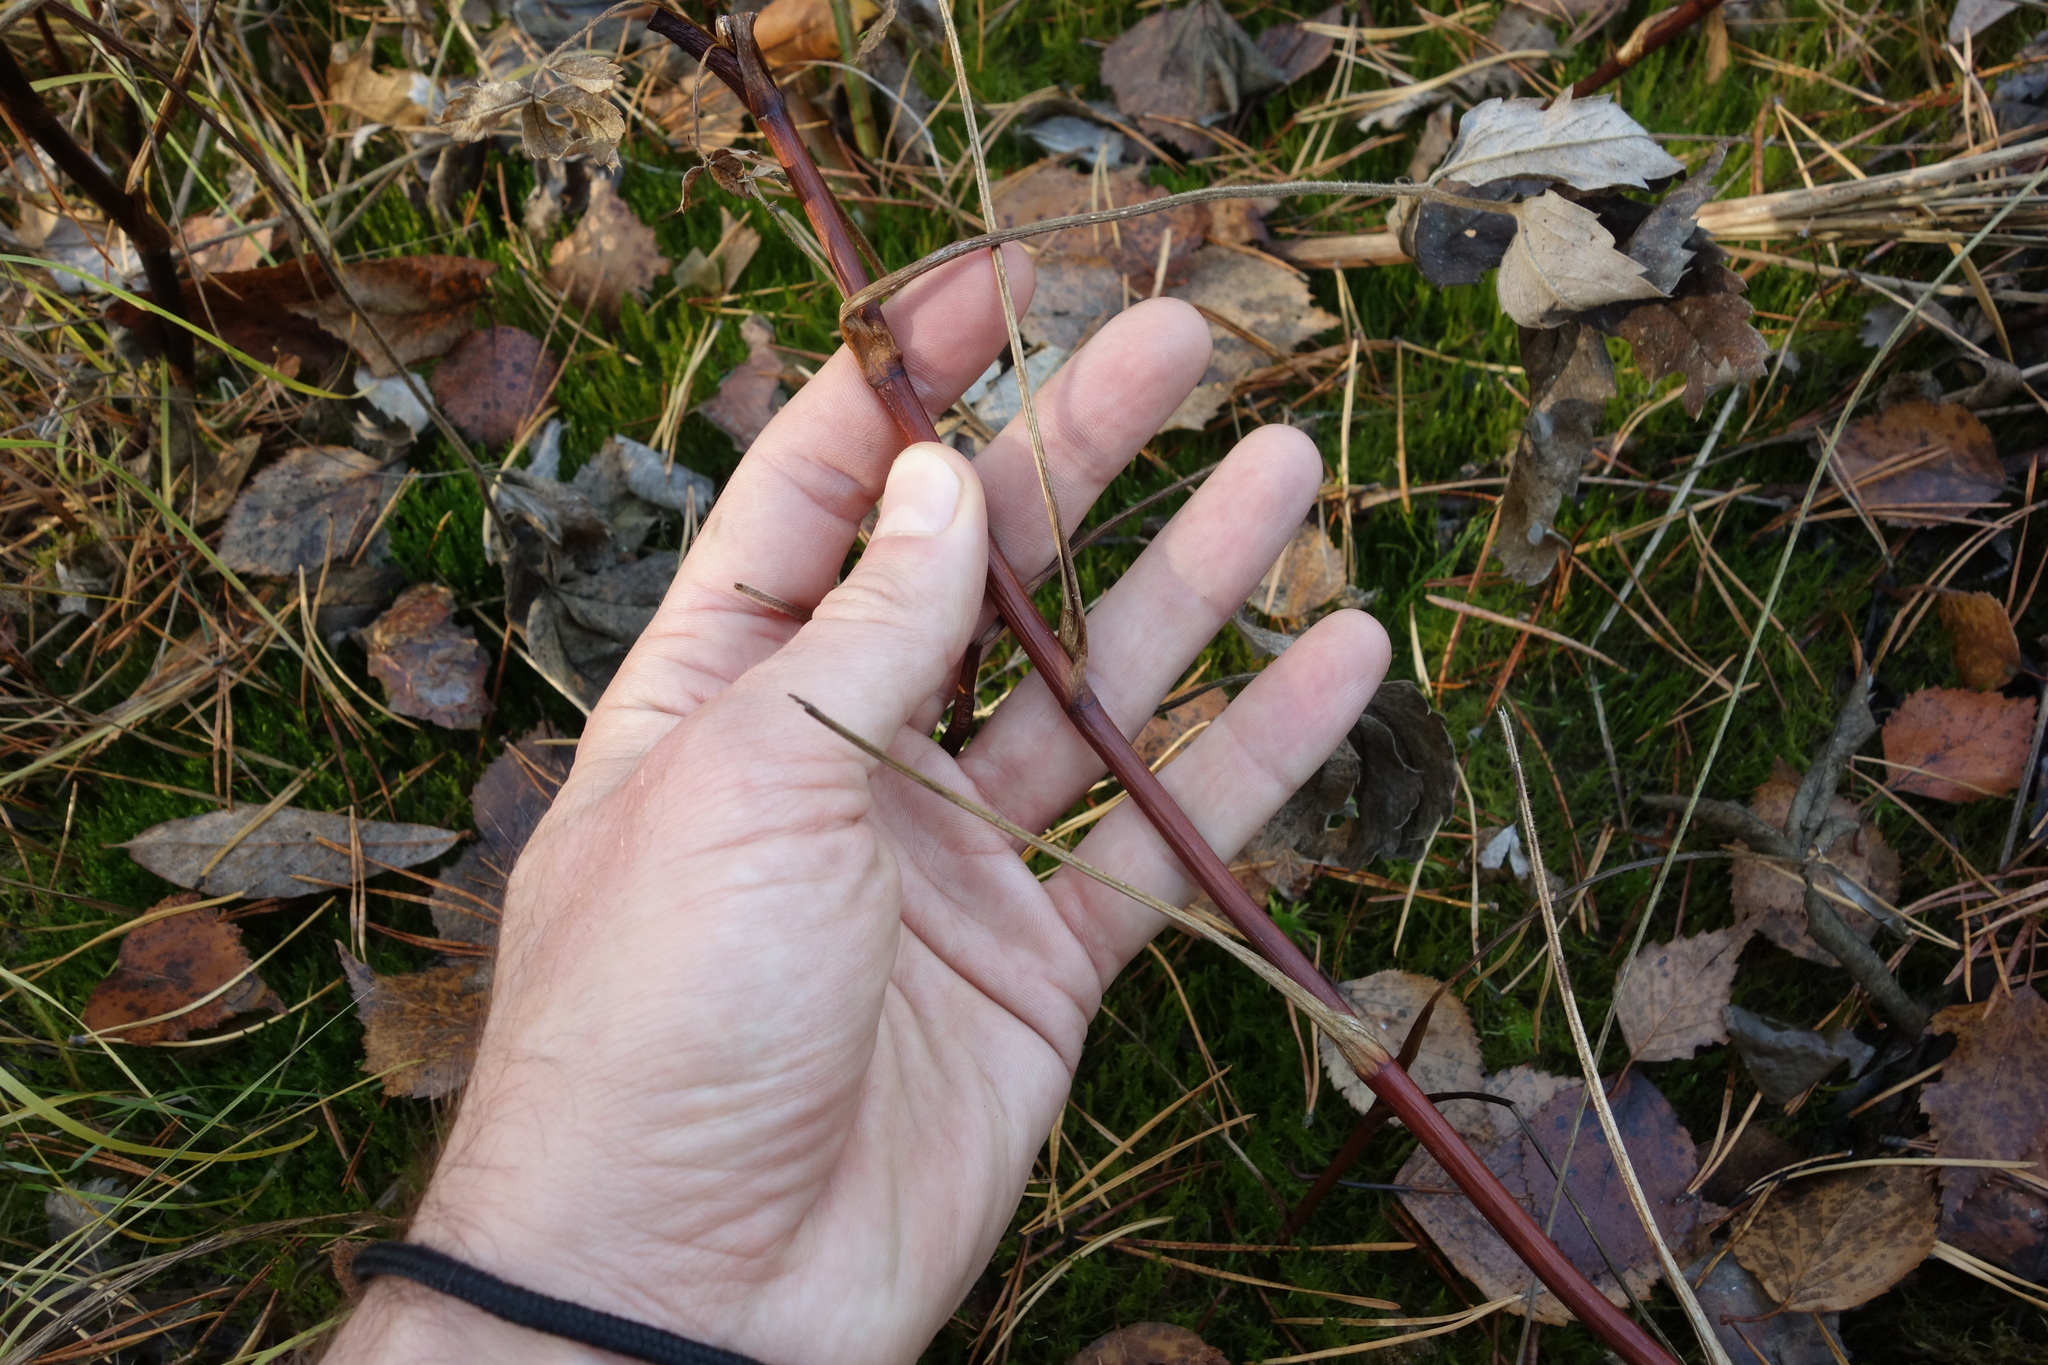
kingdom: Plantae
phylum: Tracheophyta
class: Magnoliopsida
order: Rosales
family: Rosaceae
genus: Comarum
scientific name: Comarum palustre
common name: Marsh cinquefoil
